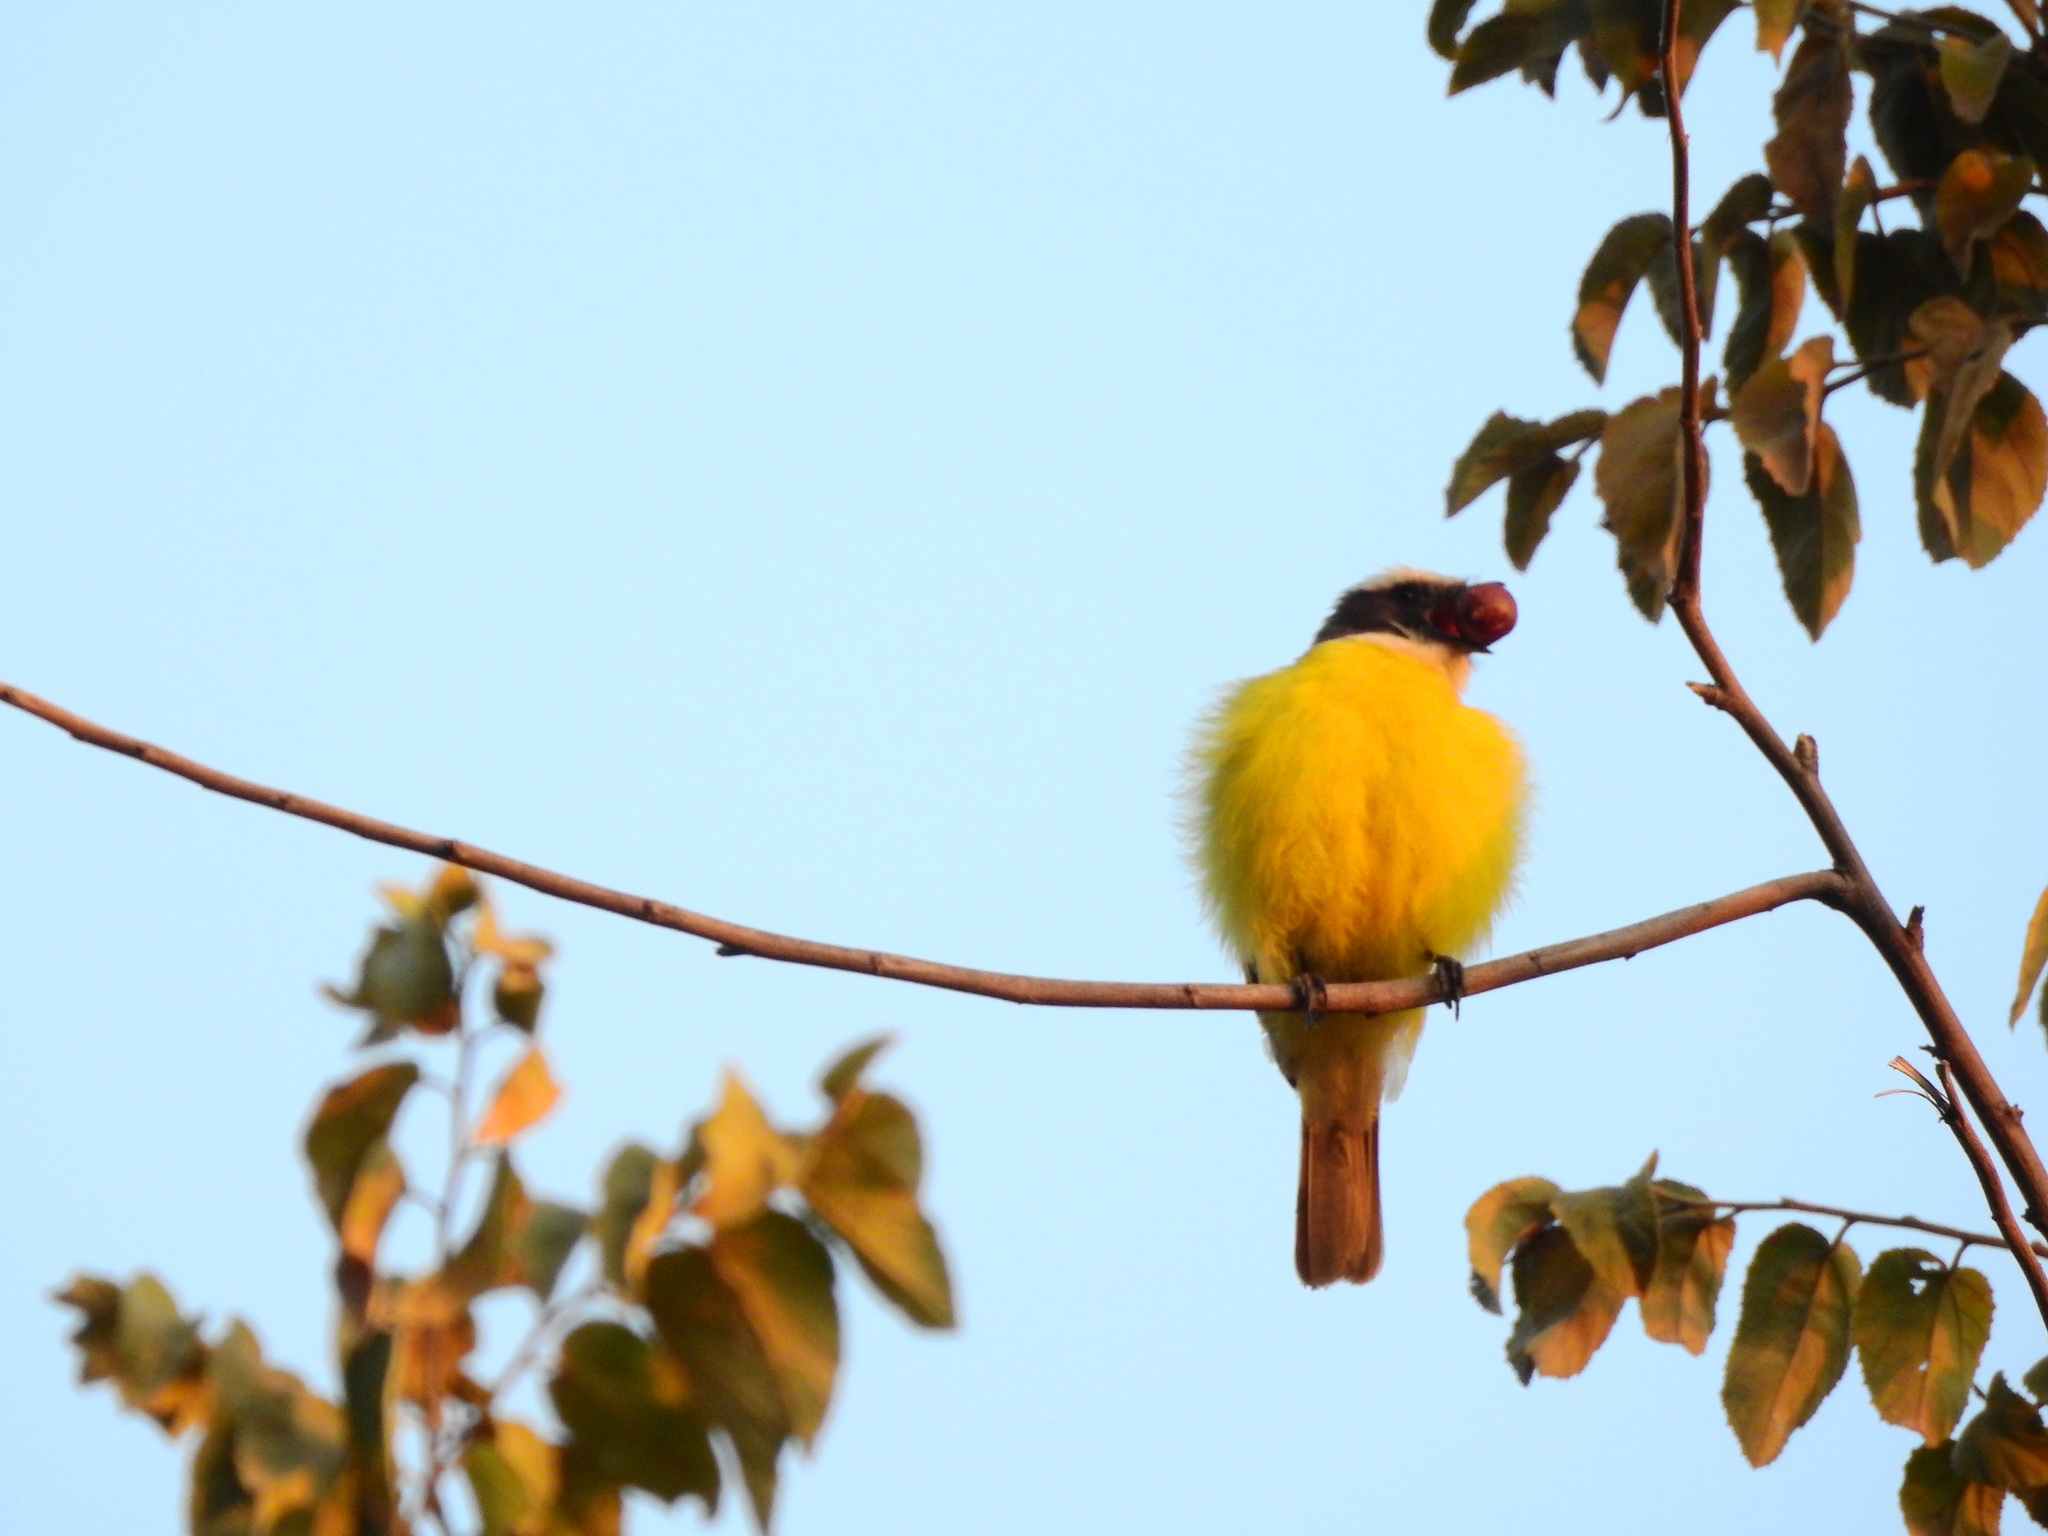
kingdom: Animalia
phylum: Chordata
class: Aves
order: Passeriformes
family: Tyrannidae
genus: Myiozetetes
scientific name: Myiozetetes similis
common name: Social flycatcher
